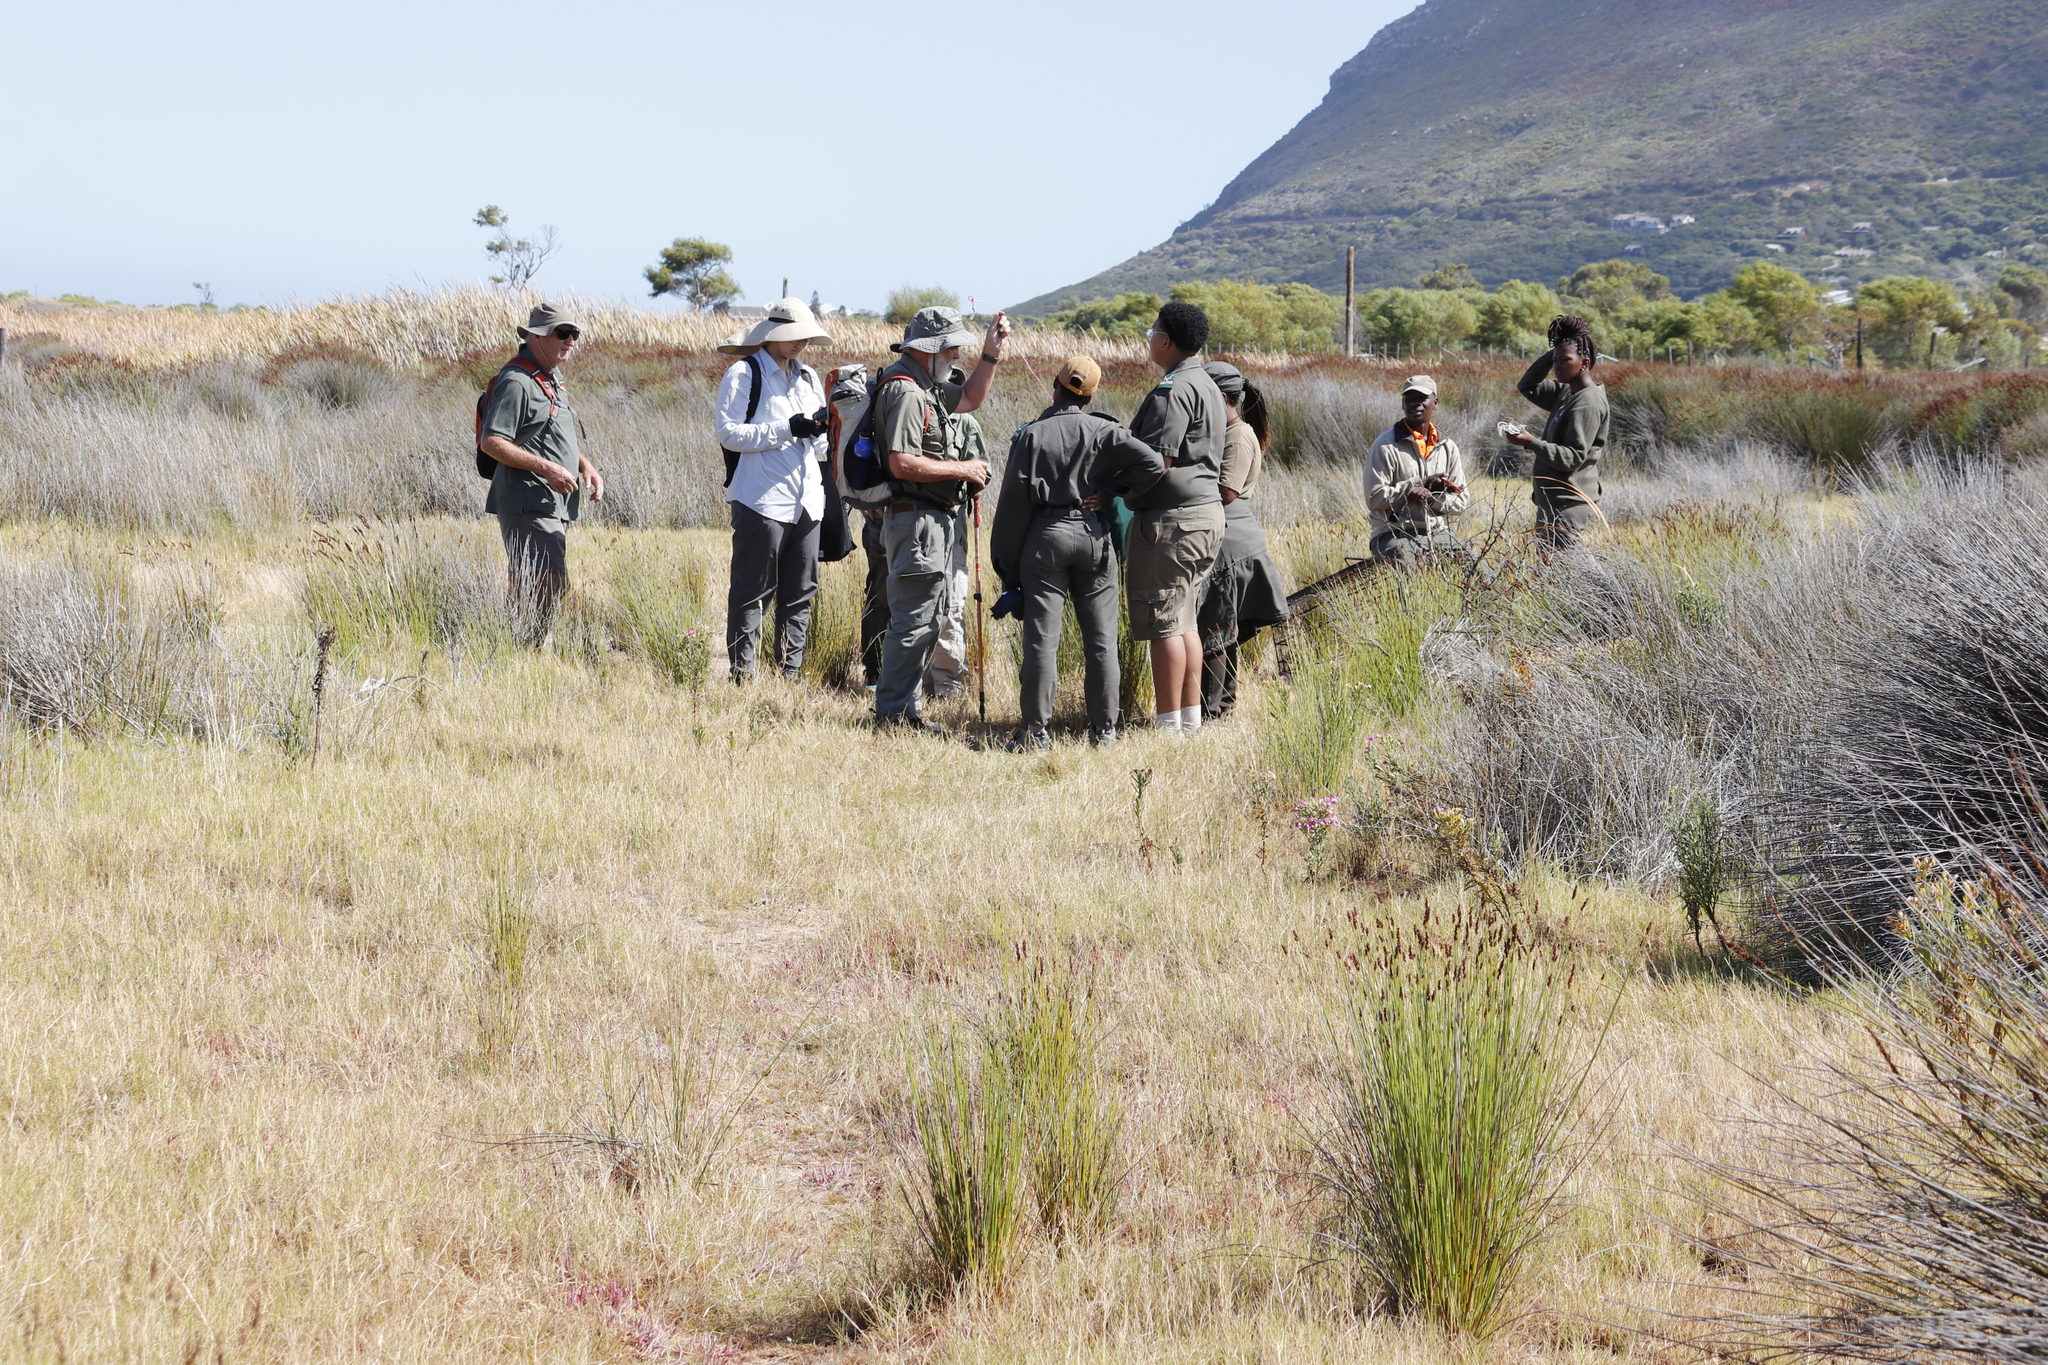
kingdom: Plantae
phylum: Tracheophyta
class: Liliopsida
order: Poales
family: Restionaceae
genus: Elegia
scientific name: Elegia tectorum
